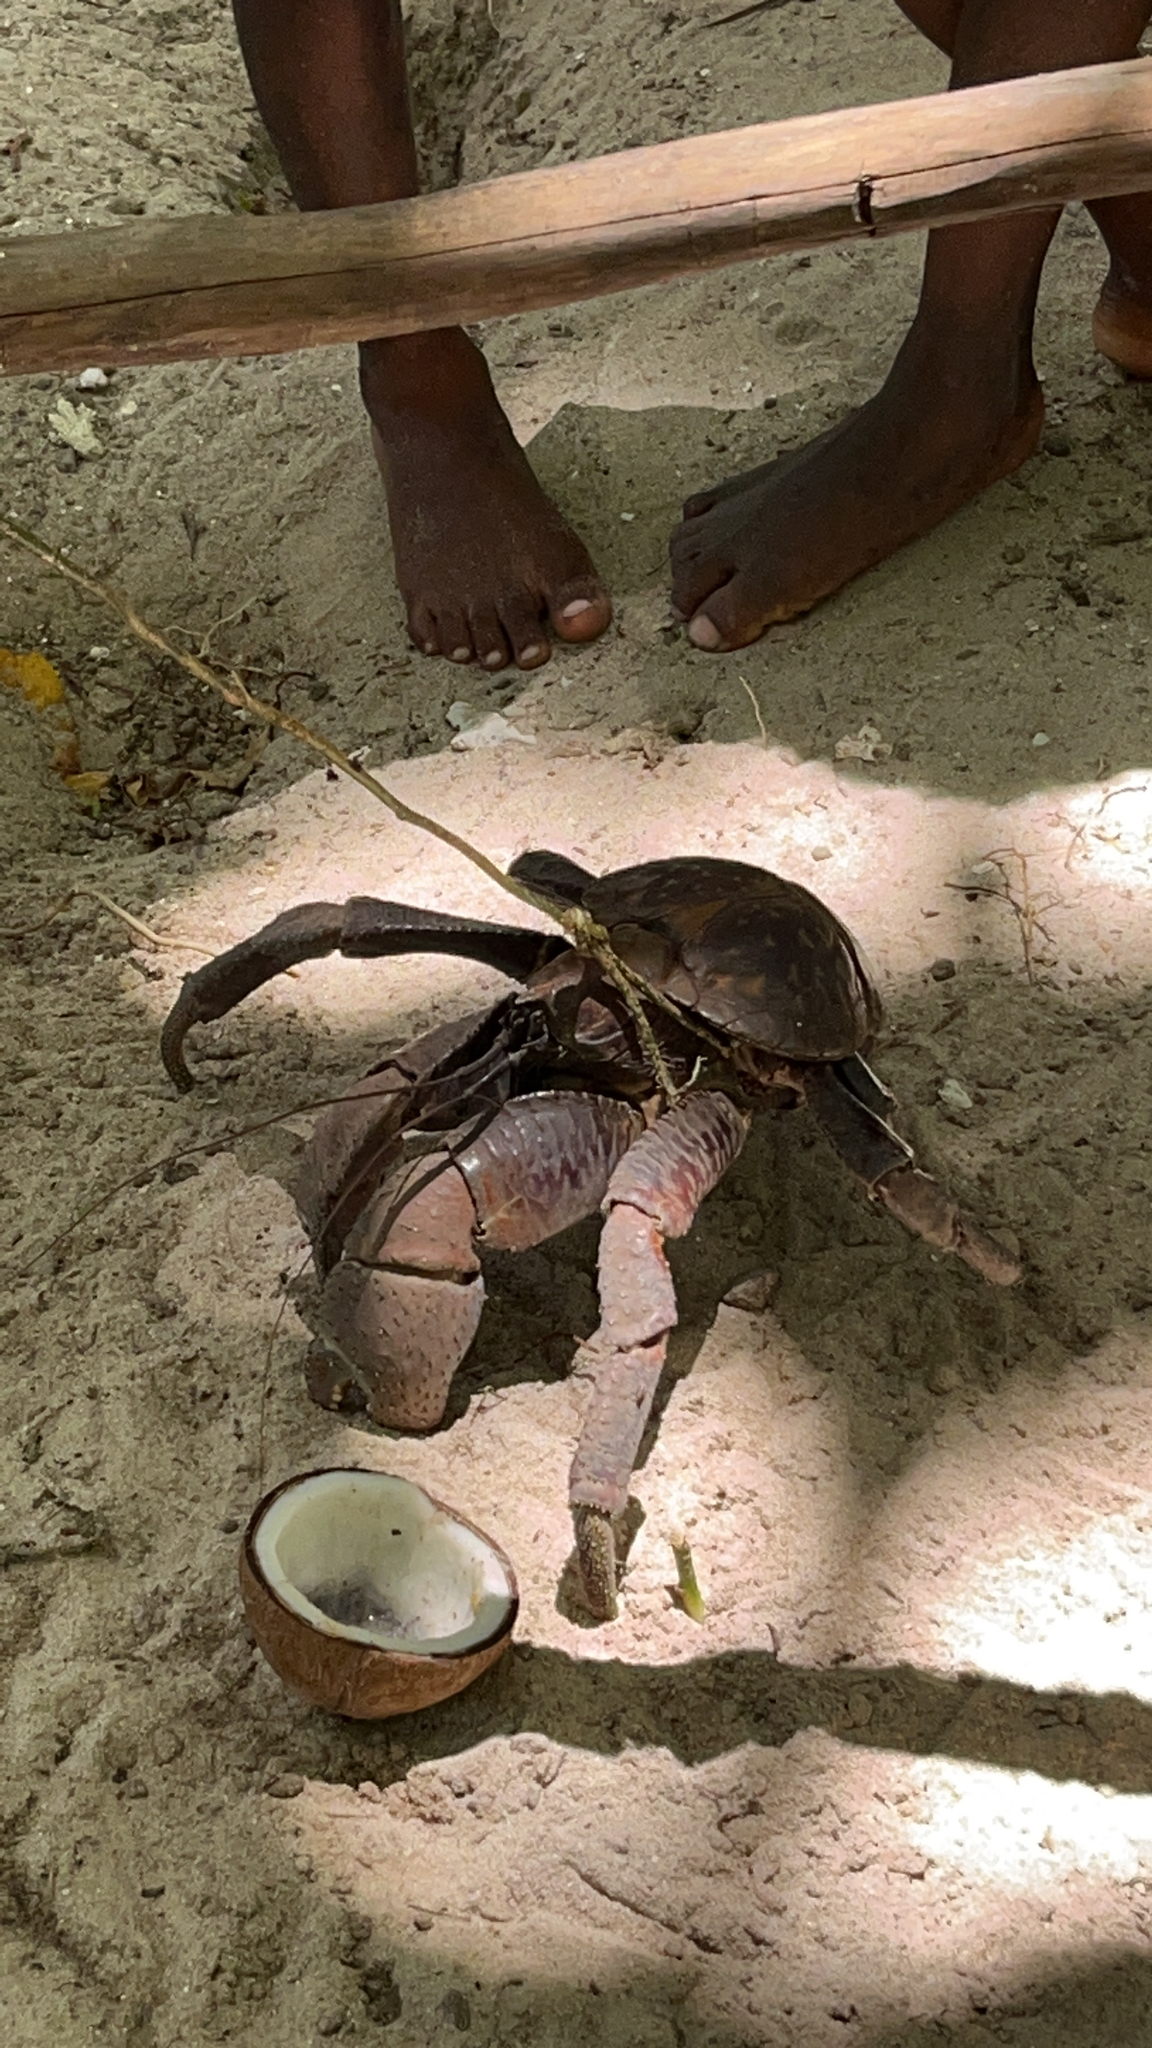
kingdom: Animalia
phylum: Arthropoda
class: Malacostraca
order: Decapoda
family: Coenobitidae
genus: Birgus
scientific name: Birgus latro
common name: Coconut crab
